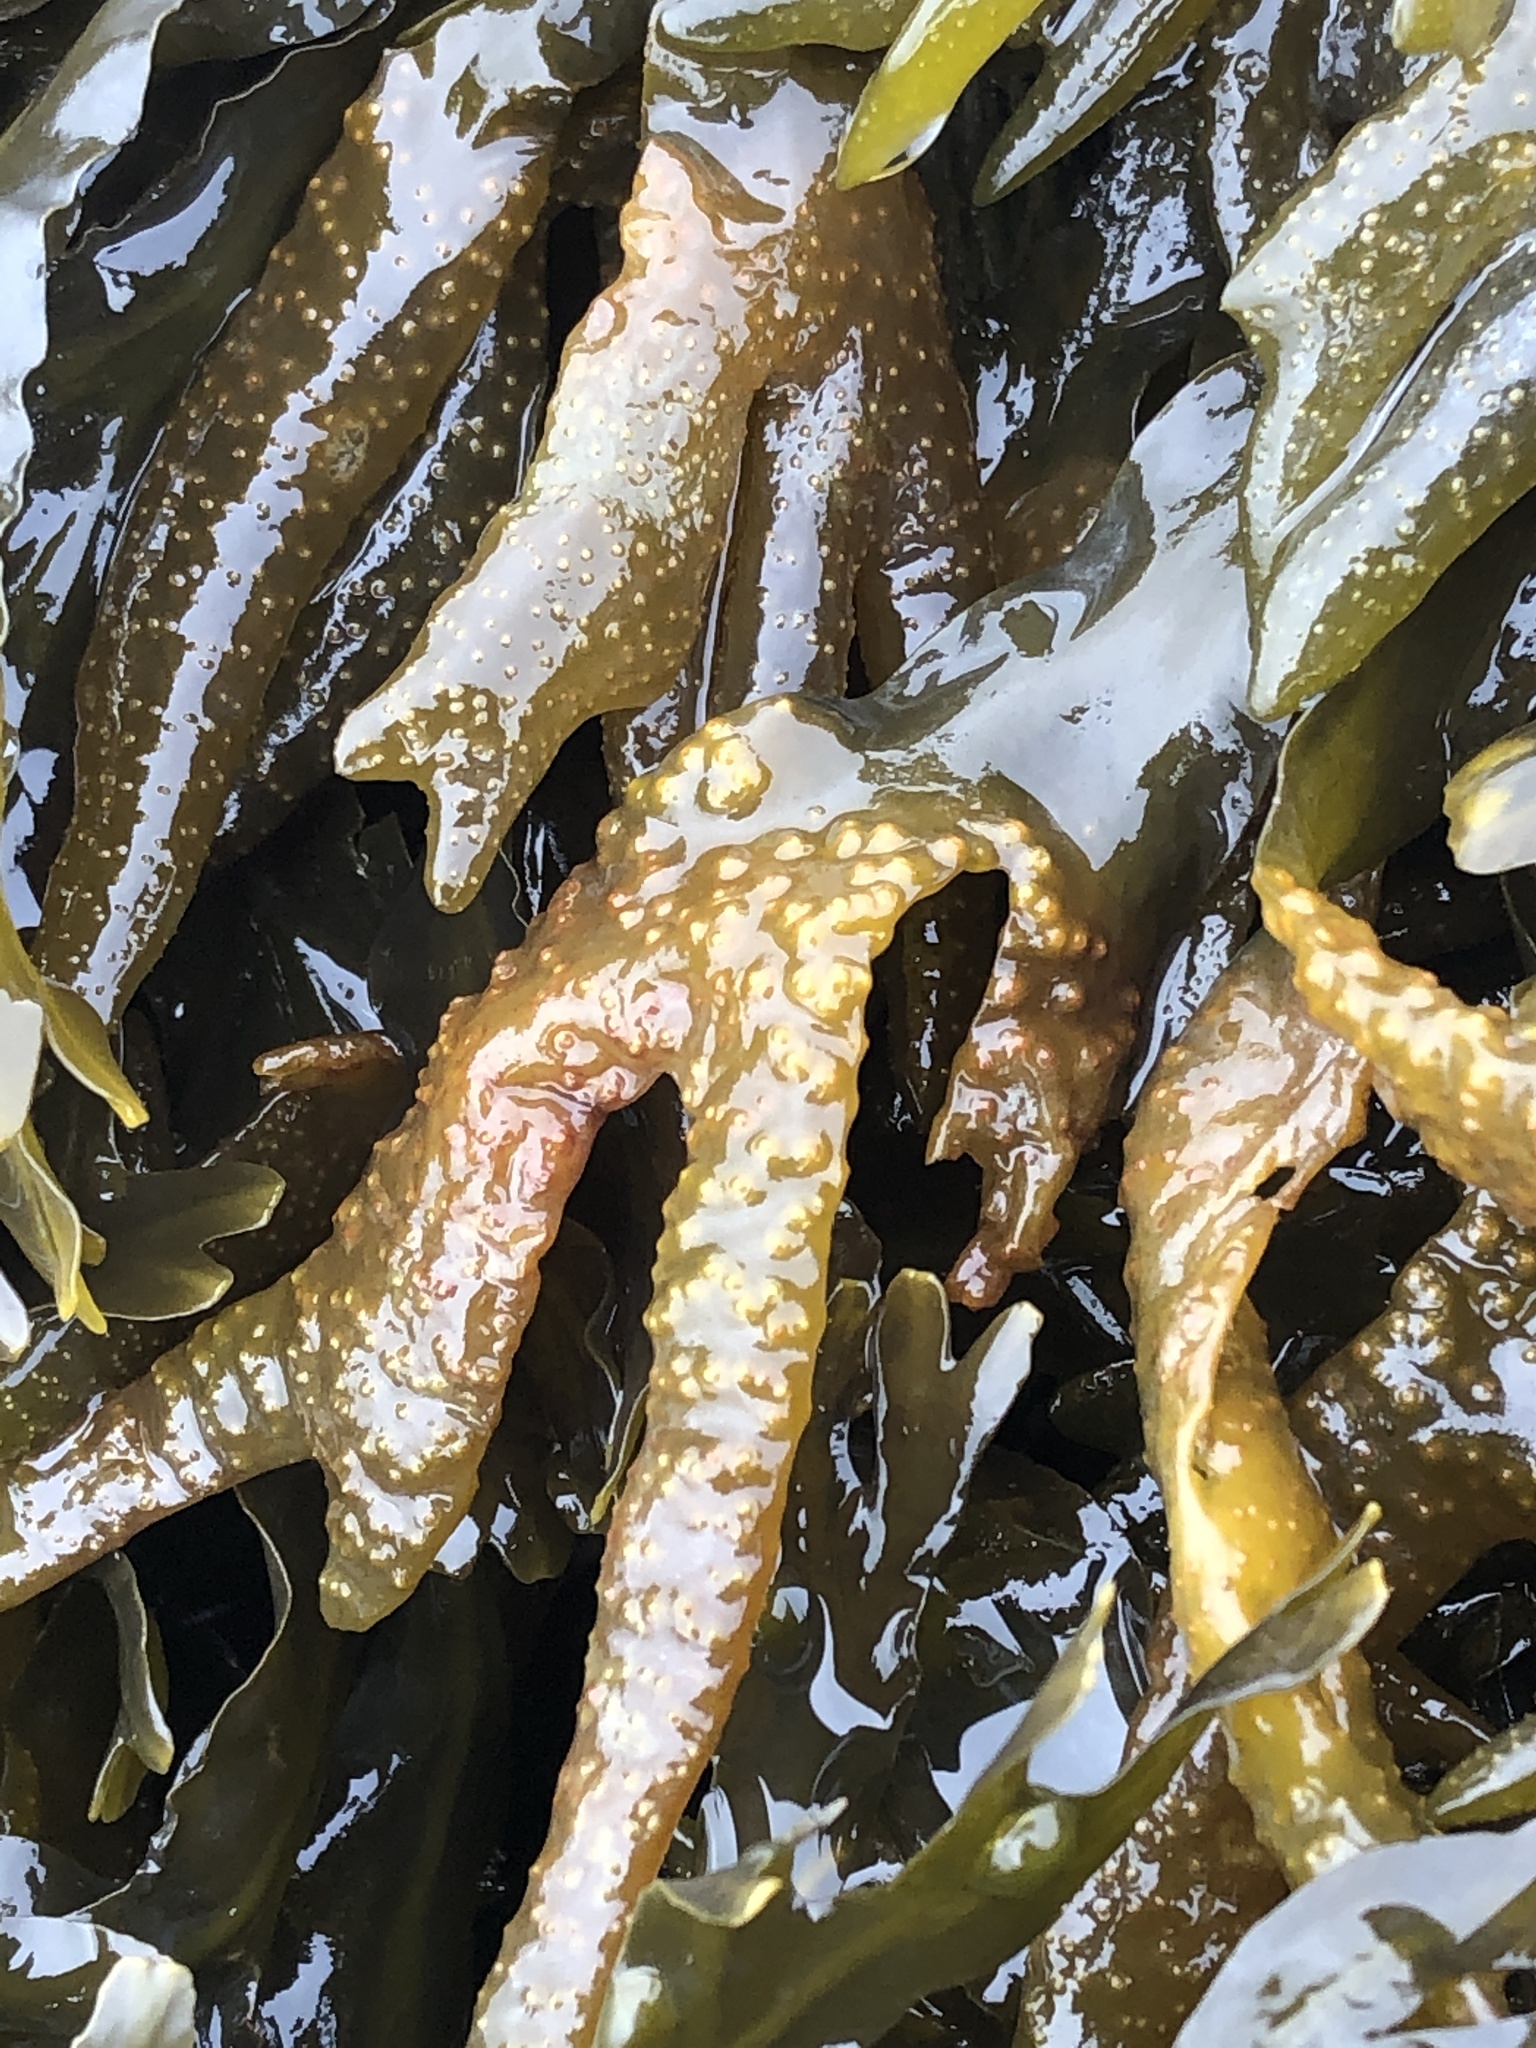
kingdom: Chromista
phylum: Ochrophyta
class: Phaeophyceae
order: Fucales
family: Fucaceae
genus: Fucus
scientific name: Fucus evanescens
